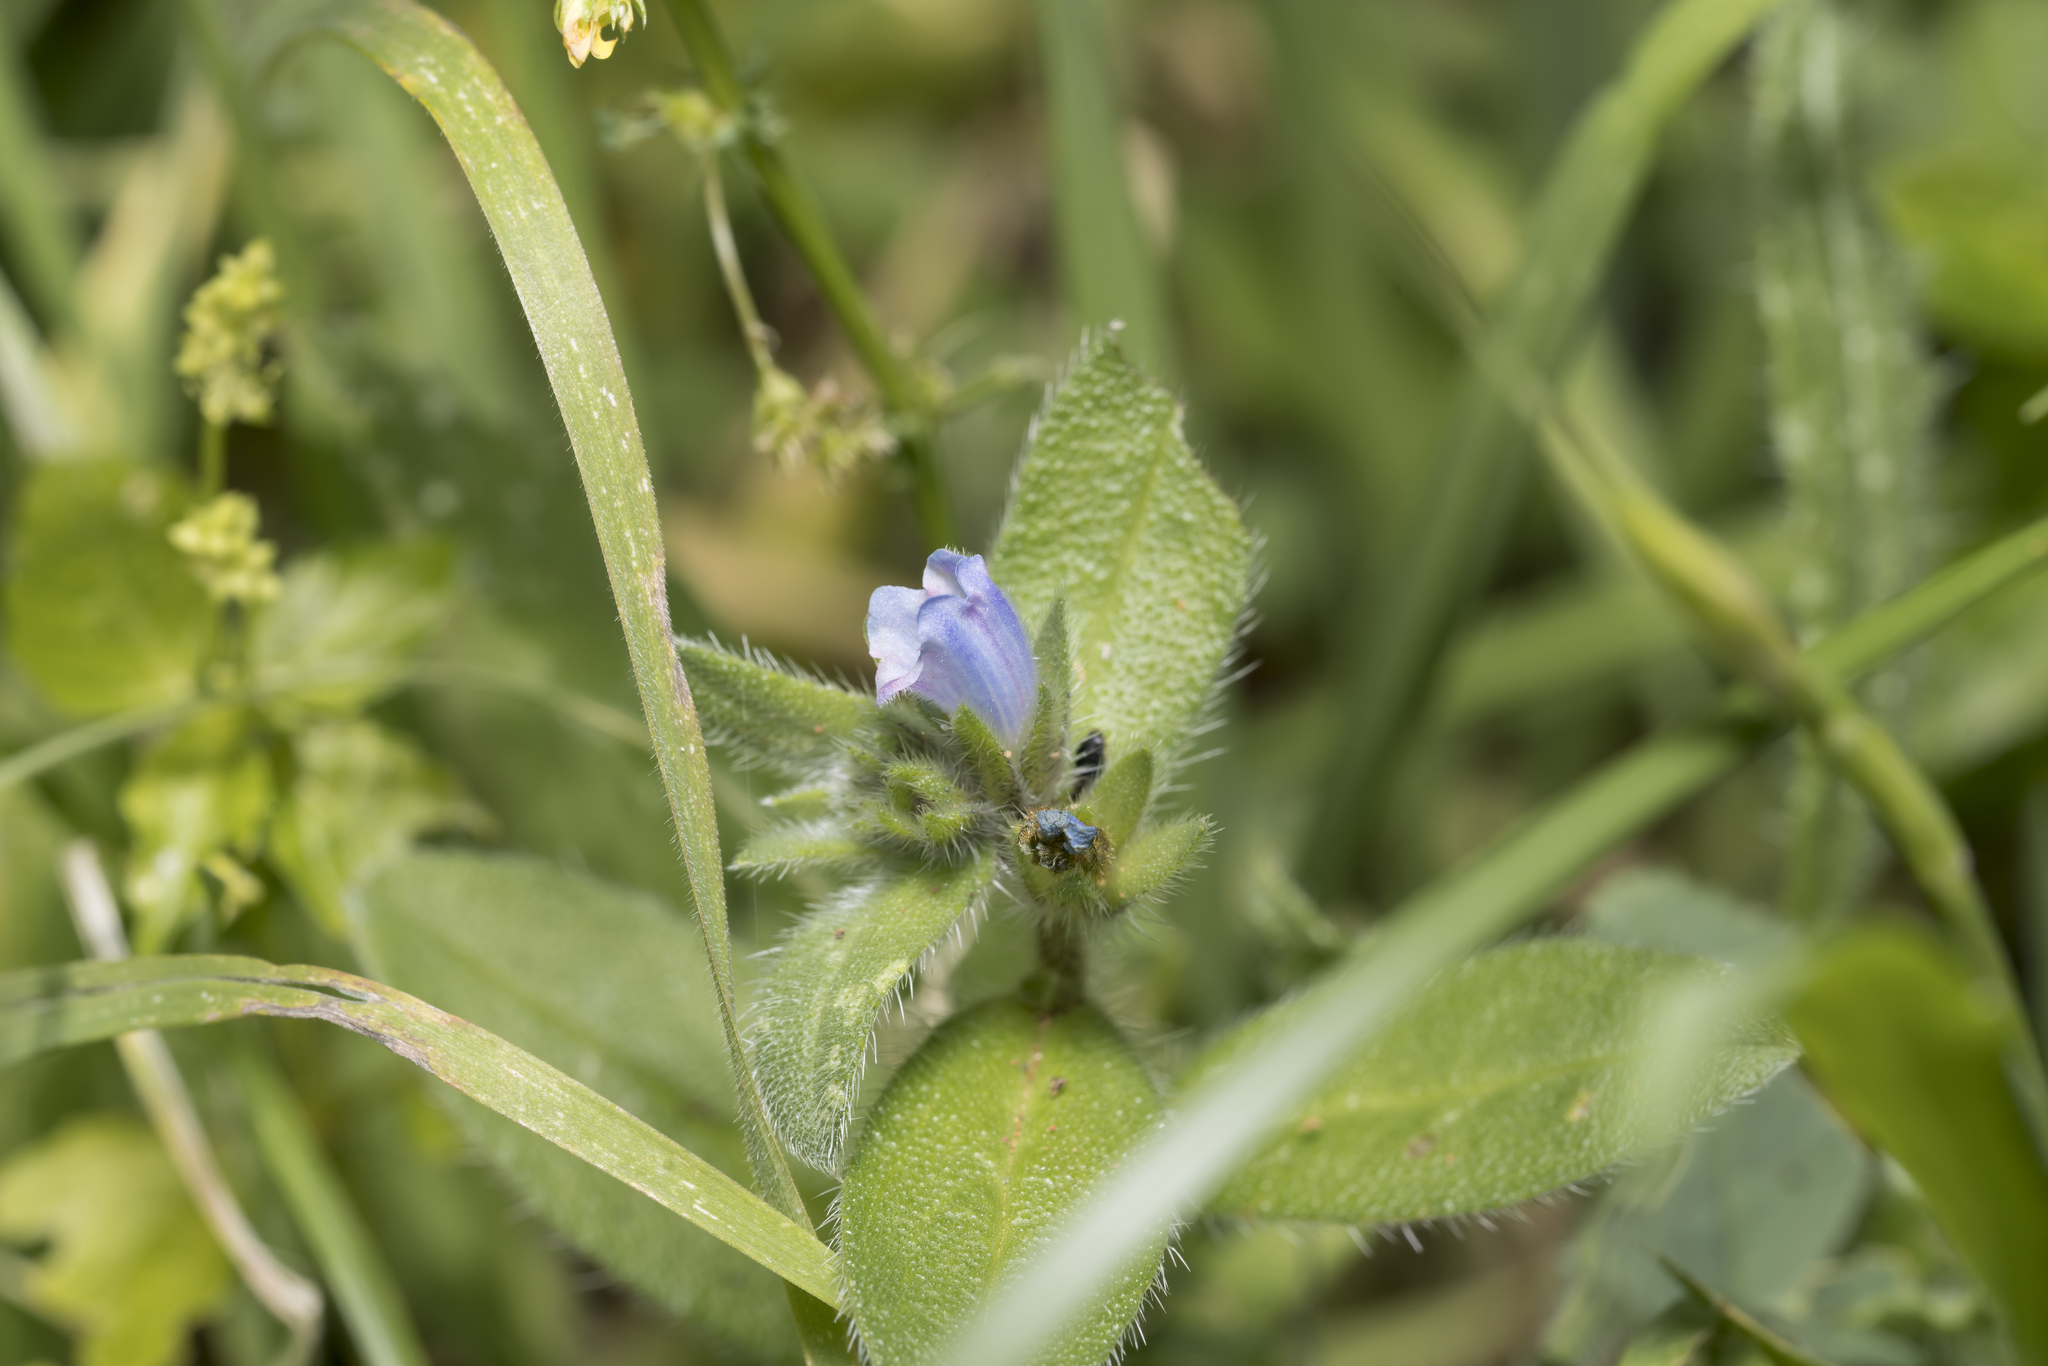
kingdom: Plantae
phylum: Tracheophyta
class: Magnoliopsida
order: Boraginales
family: Boraginaceae
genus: Echium
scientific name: Echium parviflorum
